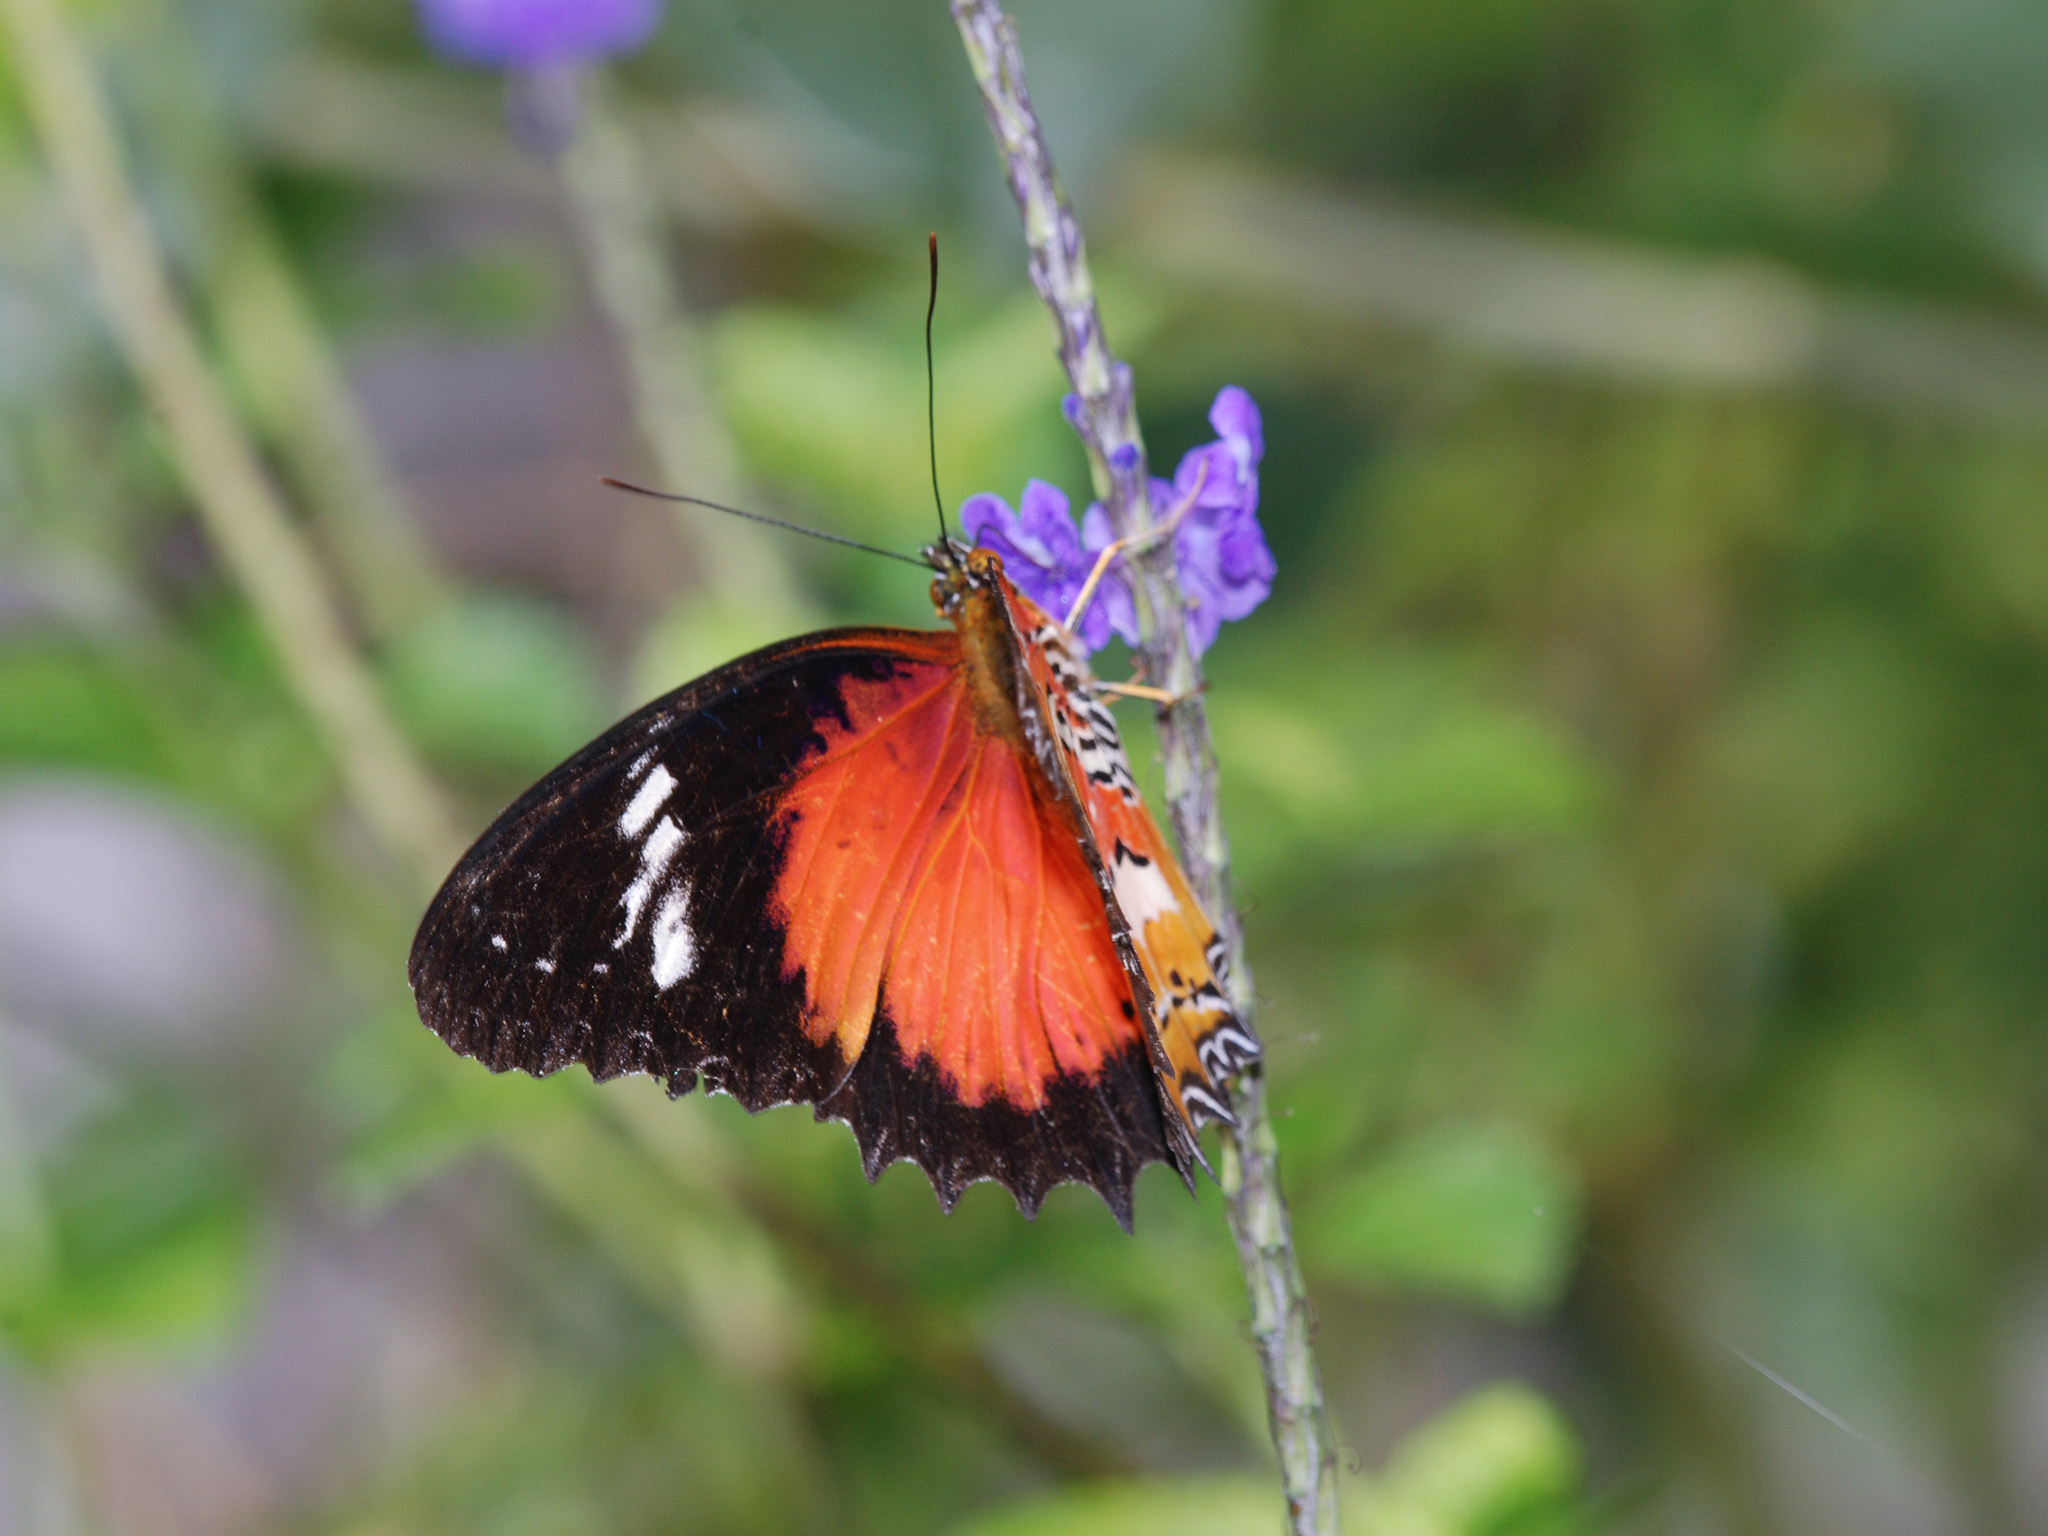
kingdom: Animalia
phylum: Arthropoda
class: Insecta
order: Lepidoptera
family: Nymphalidae
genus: Cethosia
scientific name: Cethosia penthesilea
